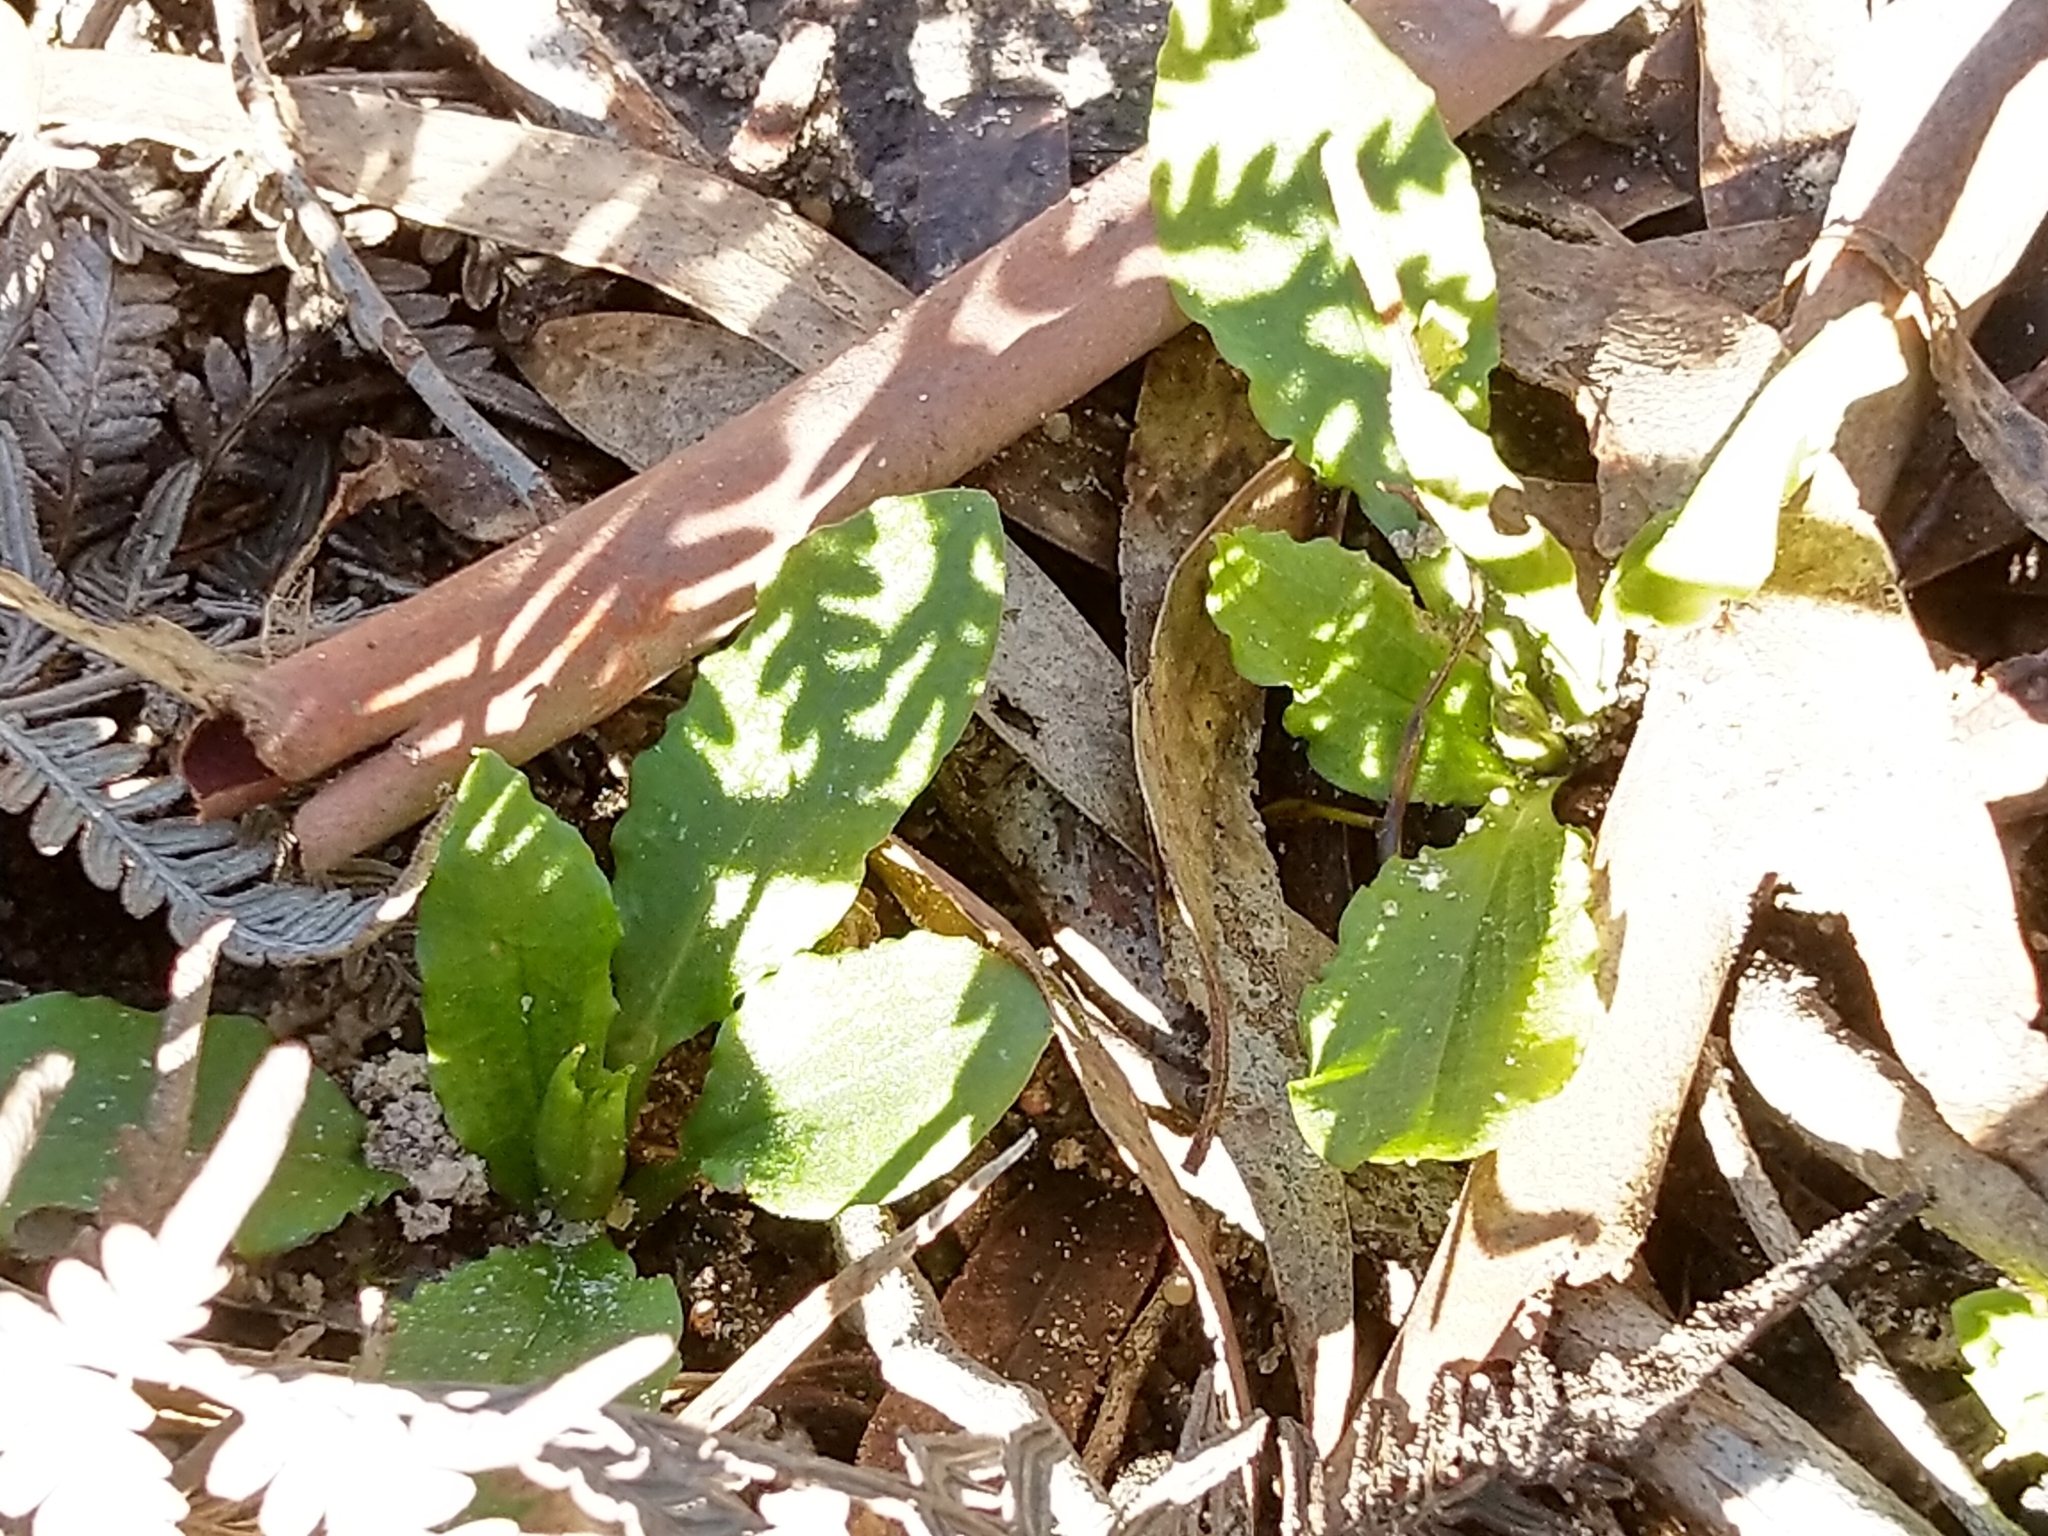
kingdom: Plantae
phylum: Tracheophyta
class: Liliopsida
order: Asparagales
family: Orchidaceae
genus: Pterostylis
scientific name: Pterostylis nutans
